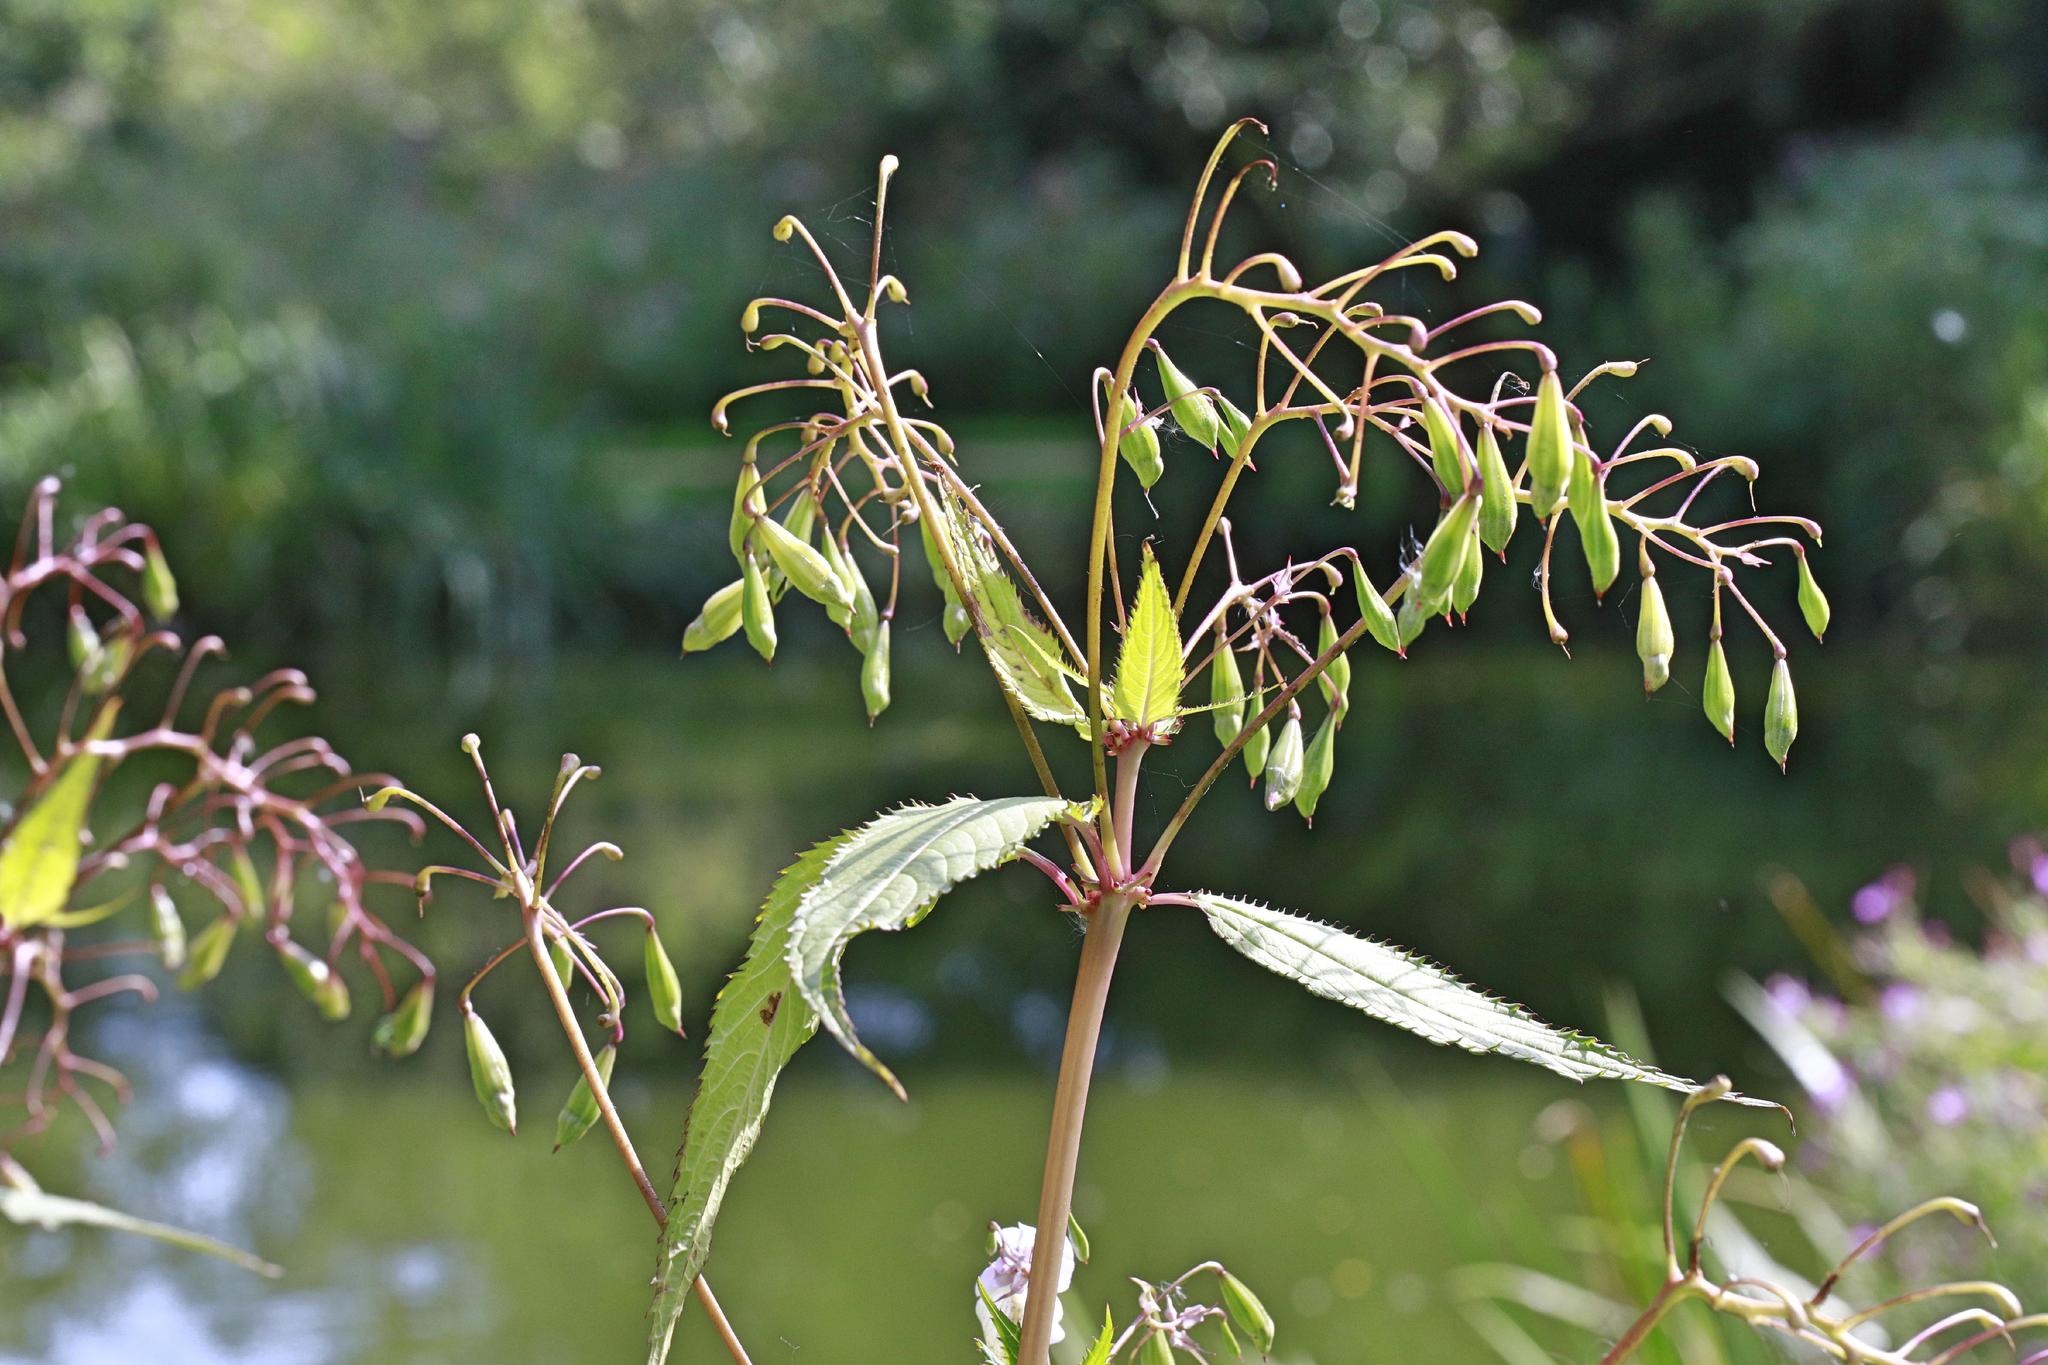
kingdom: Plantae
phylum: Tracheophyta
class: Magnoliopsida
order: Ericales
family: Balsaminaceae
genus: Impatiens
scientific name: Impatiens glandulifera
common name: Himalayan balsam
